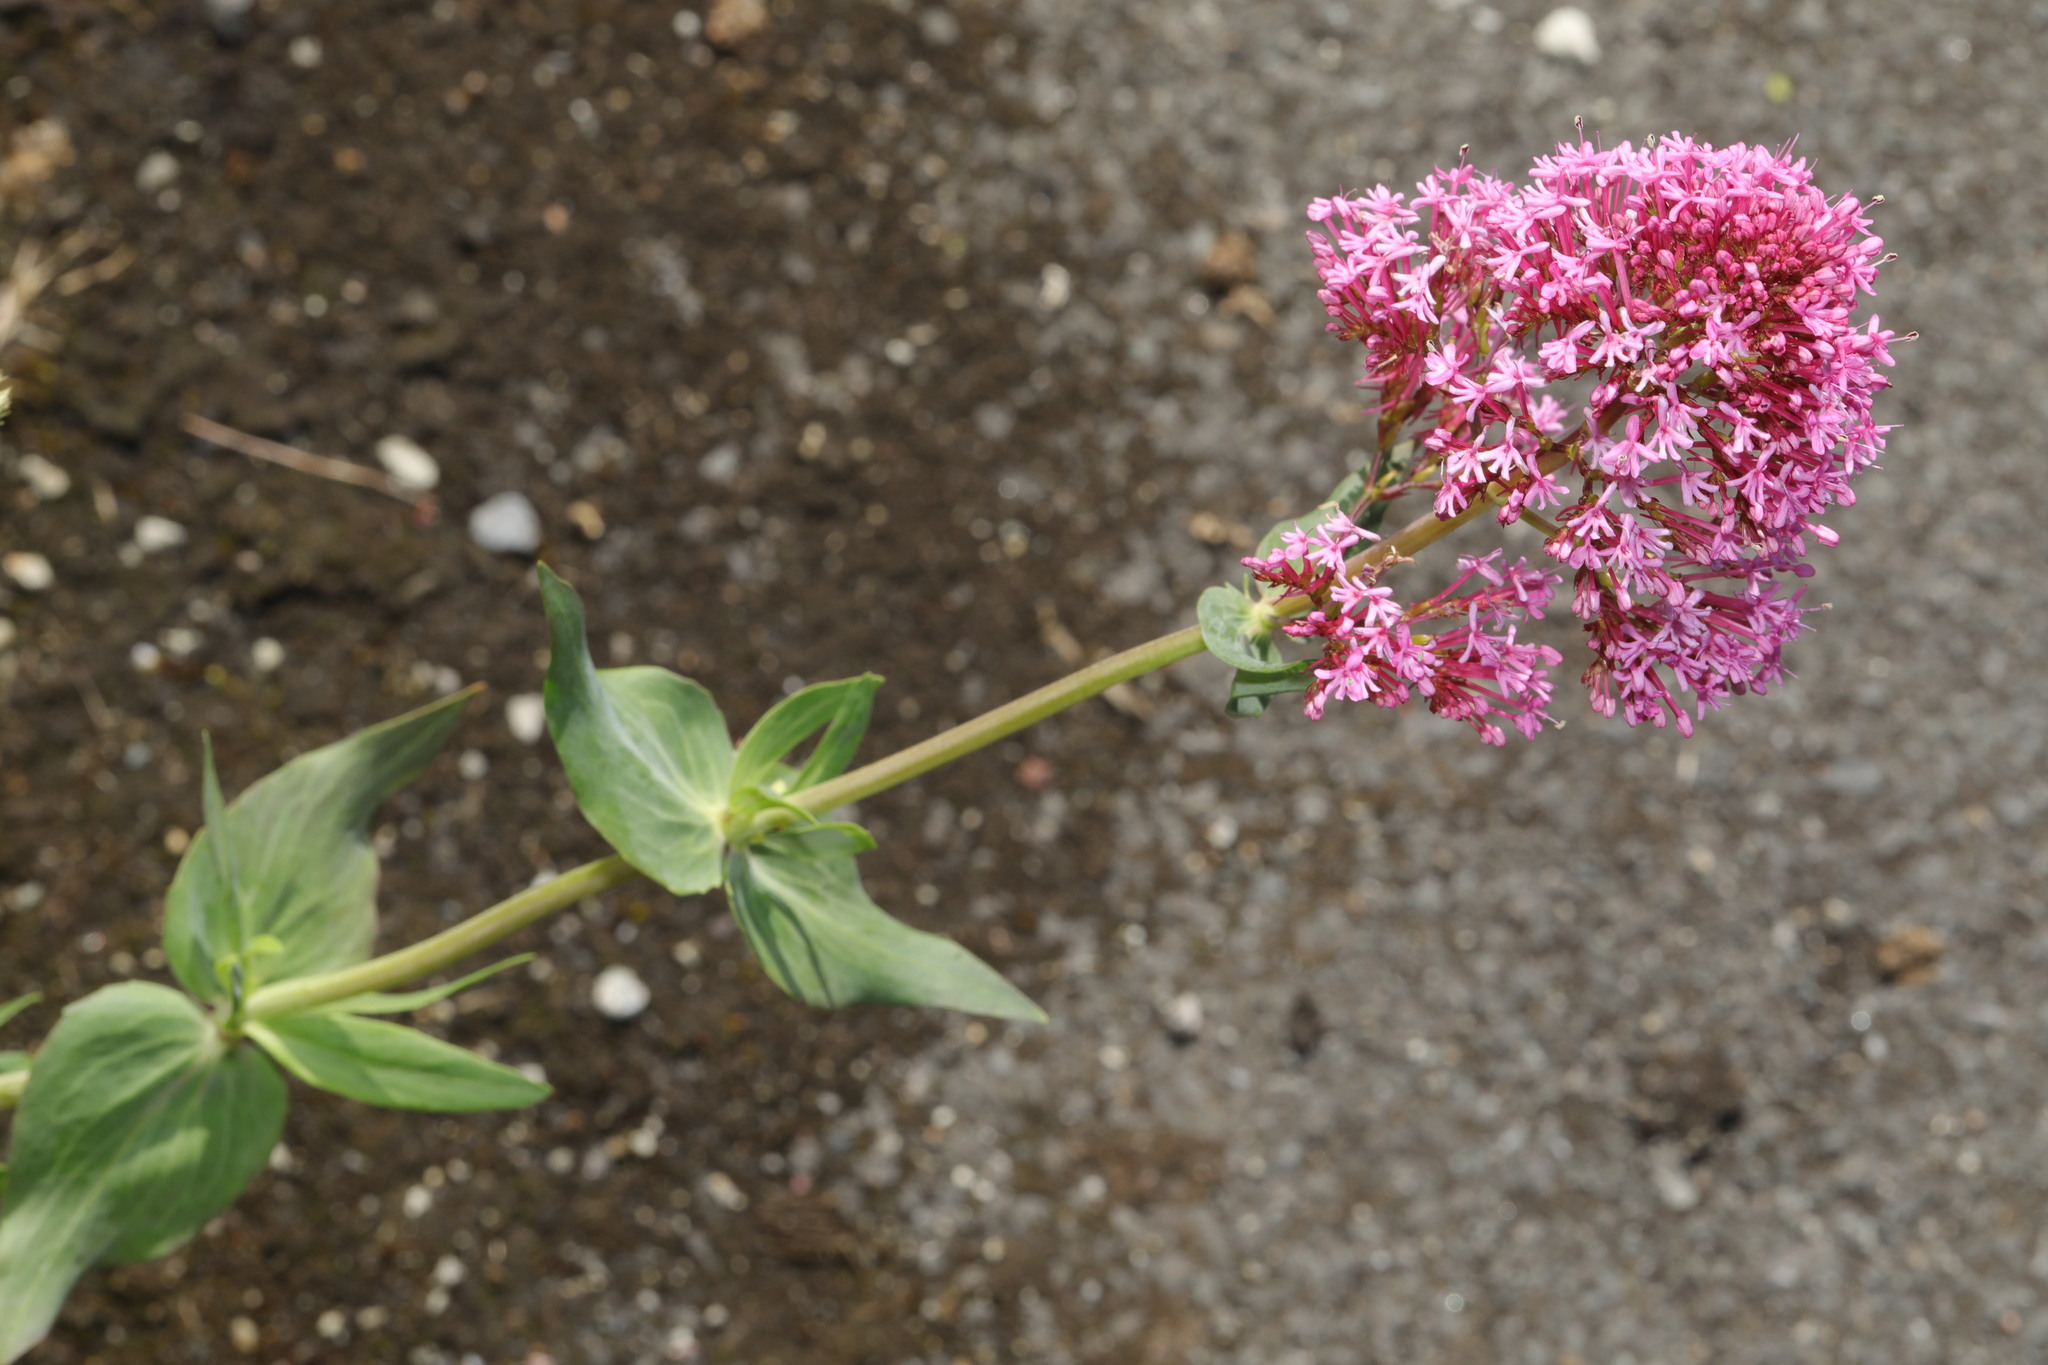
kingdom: Plantae
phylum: Tracheophyta
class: Magnoliopsida
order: Dipsacales
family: Caprifoliaceae
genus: Centranthus
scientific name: Centranthus ruber
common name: Red valerian
